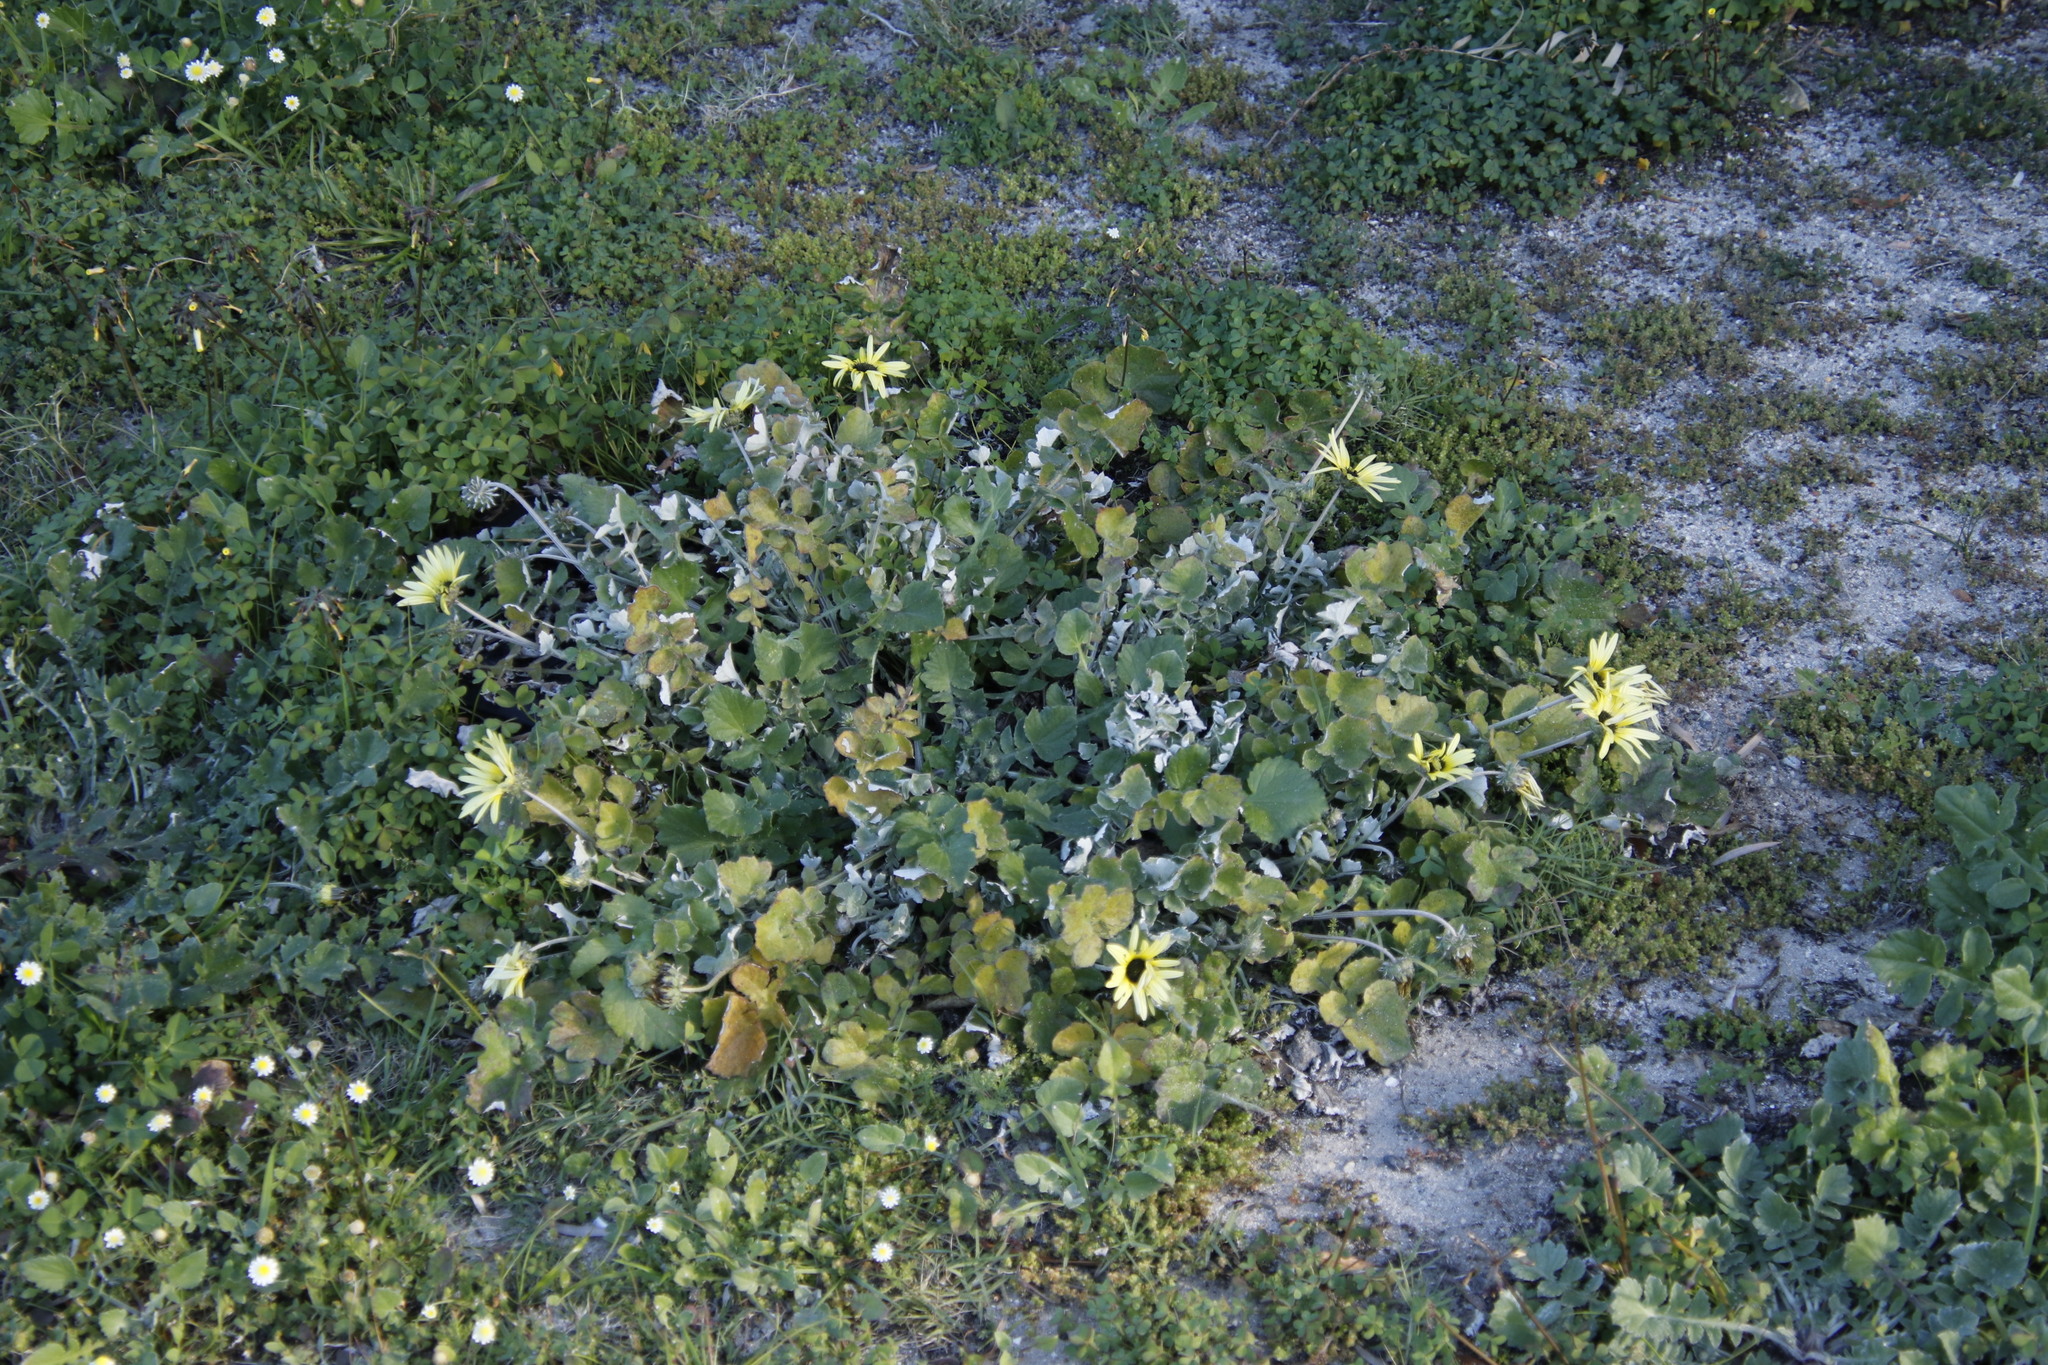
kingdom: Plantae
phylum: Tracheophyta
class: Magnoliopsida
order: Asterales
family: Asteraceae
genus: Arctotheca
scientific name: Arctotheca calendula
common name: Capeweed
